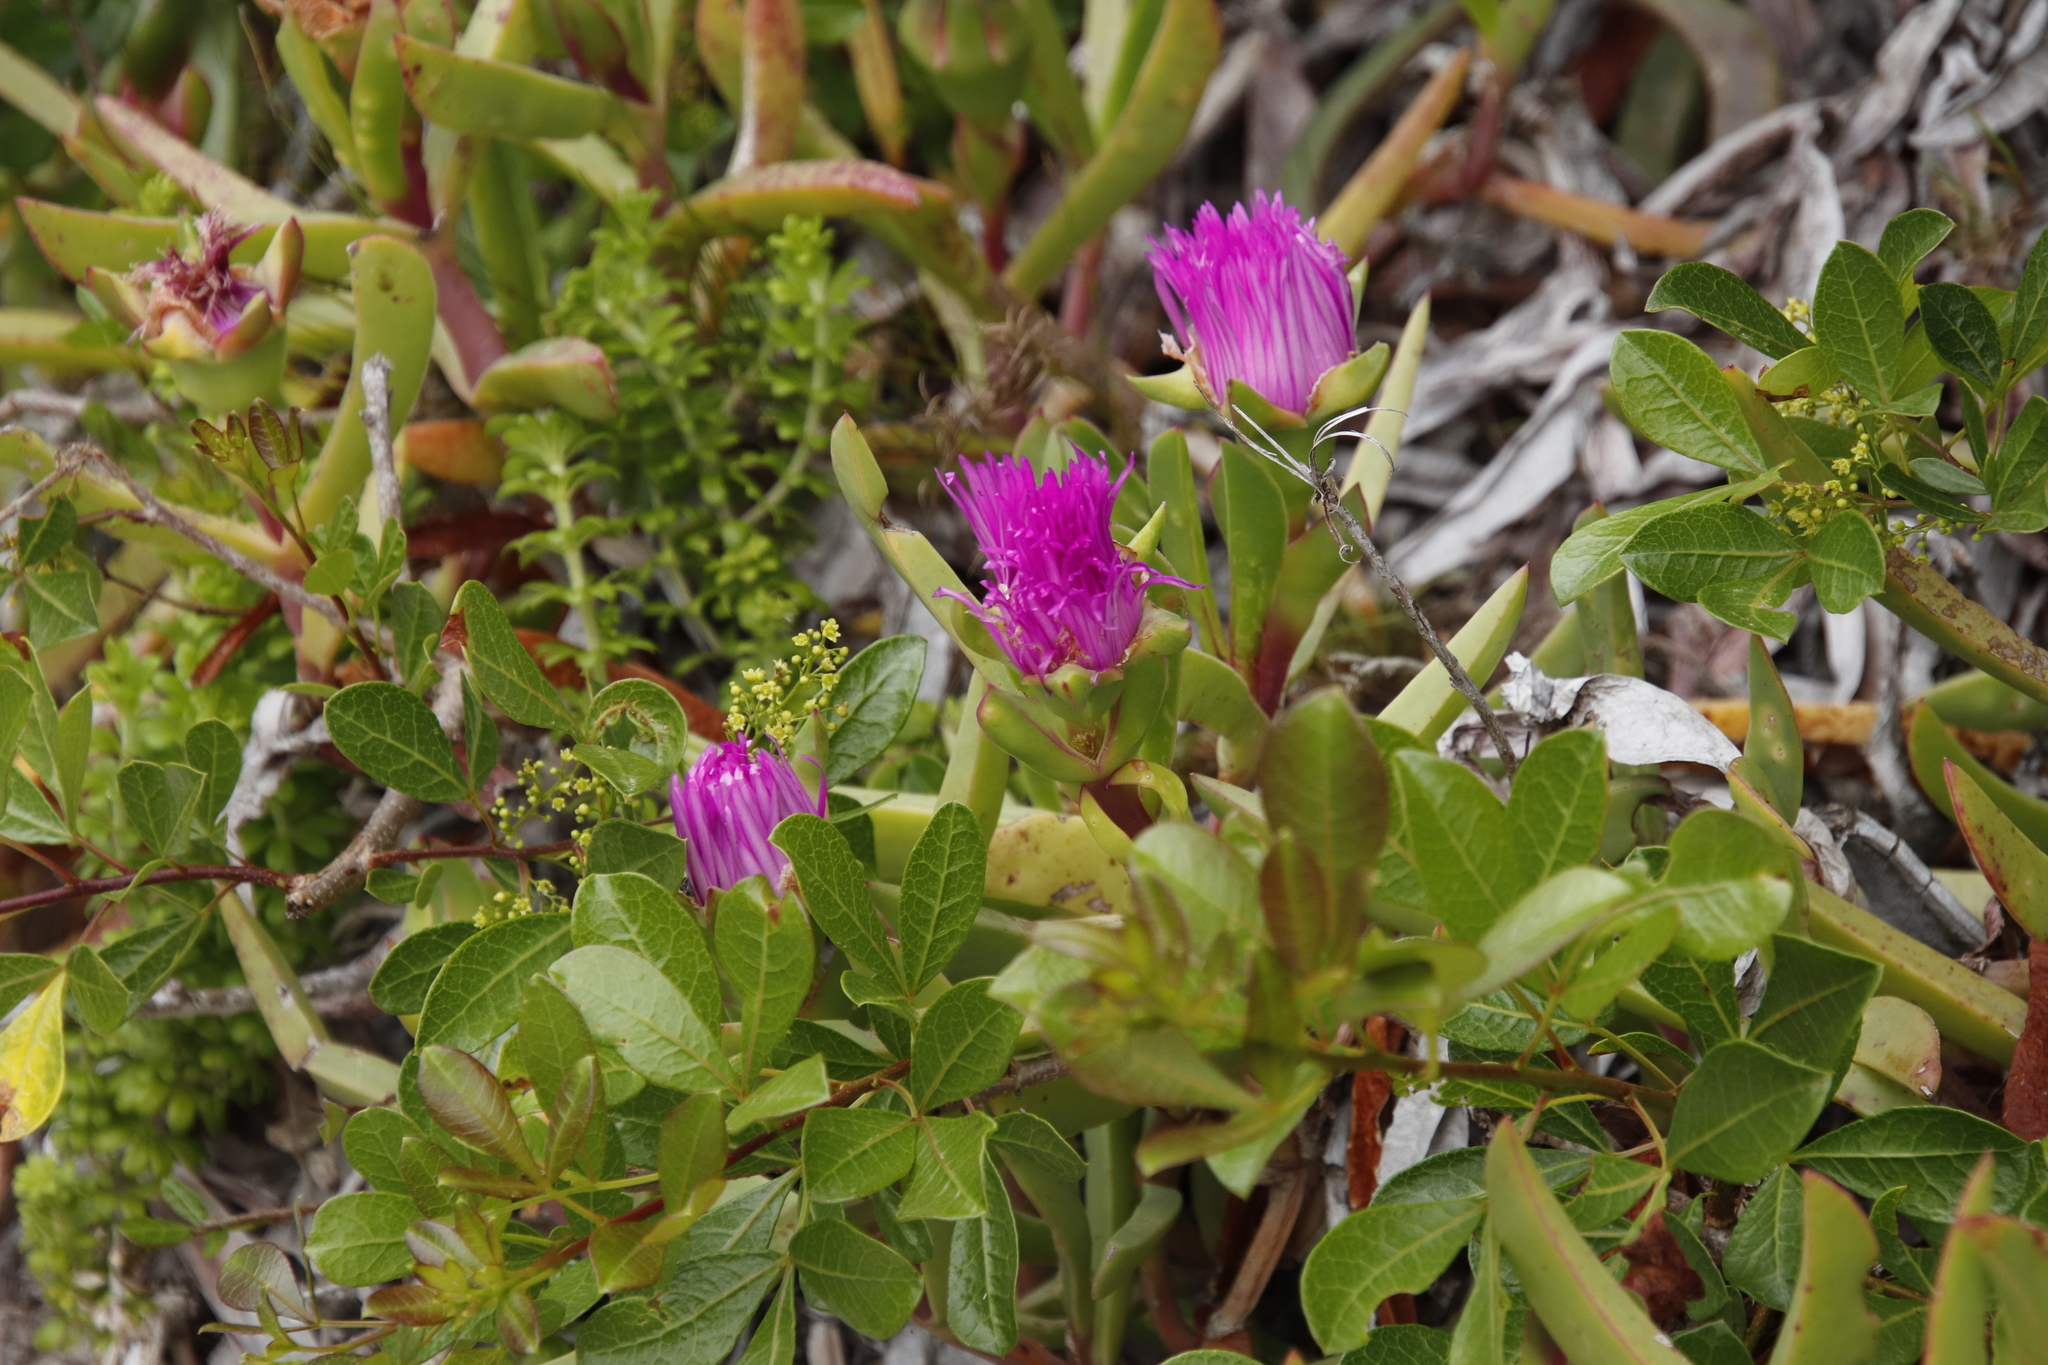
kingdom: Plantae
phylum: Tracheophyta
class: Magnoliopsida
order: Sapindales
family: Anacardiaceae
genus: Searsia
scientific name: Searsia laevigata
